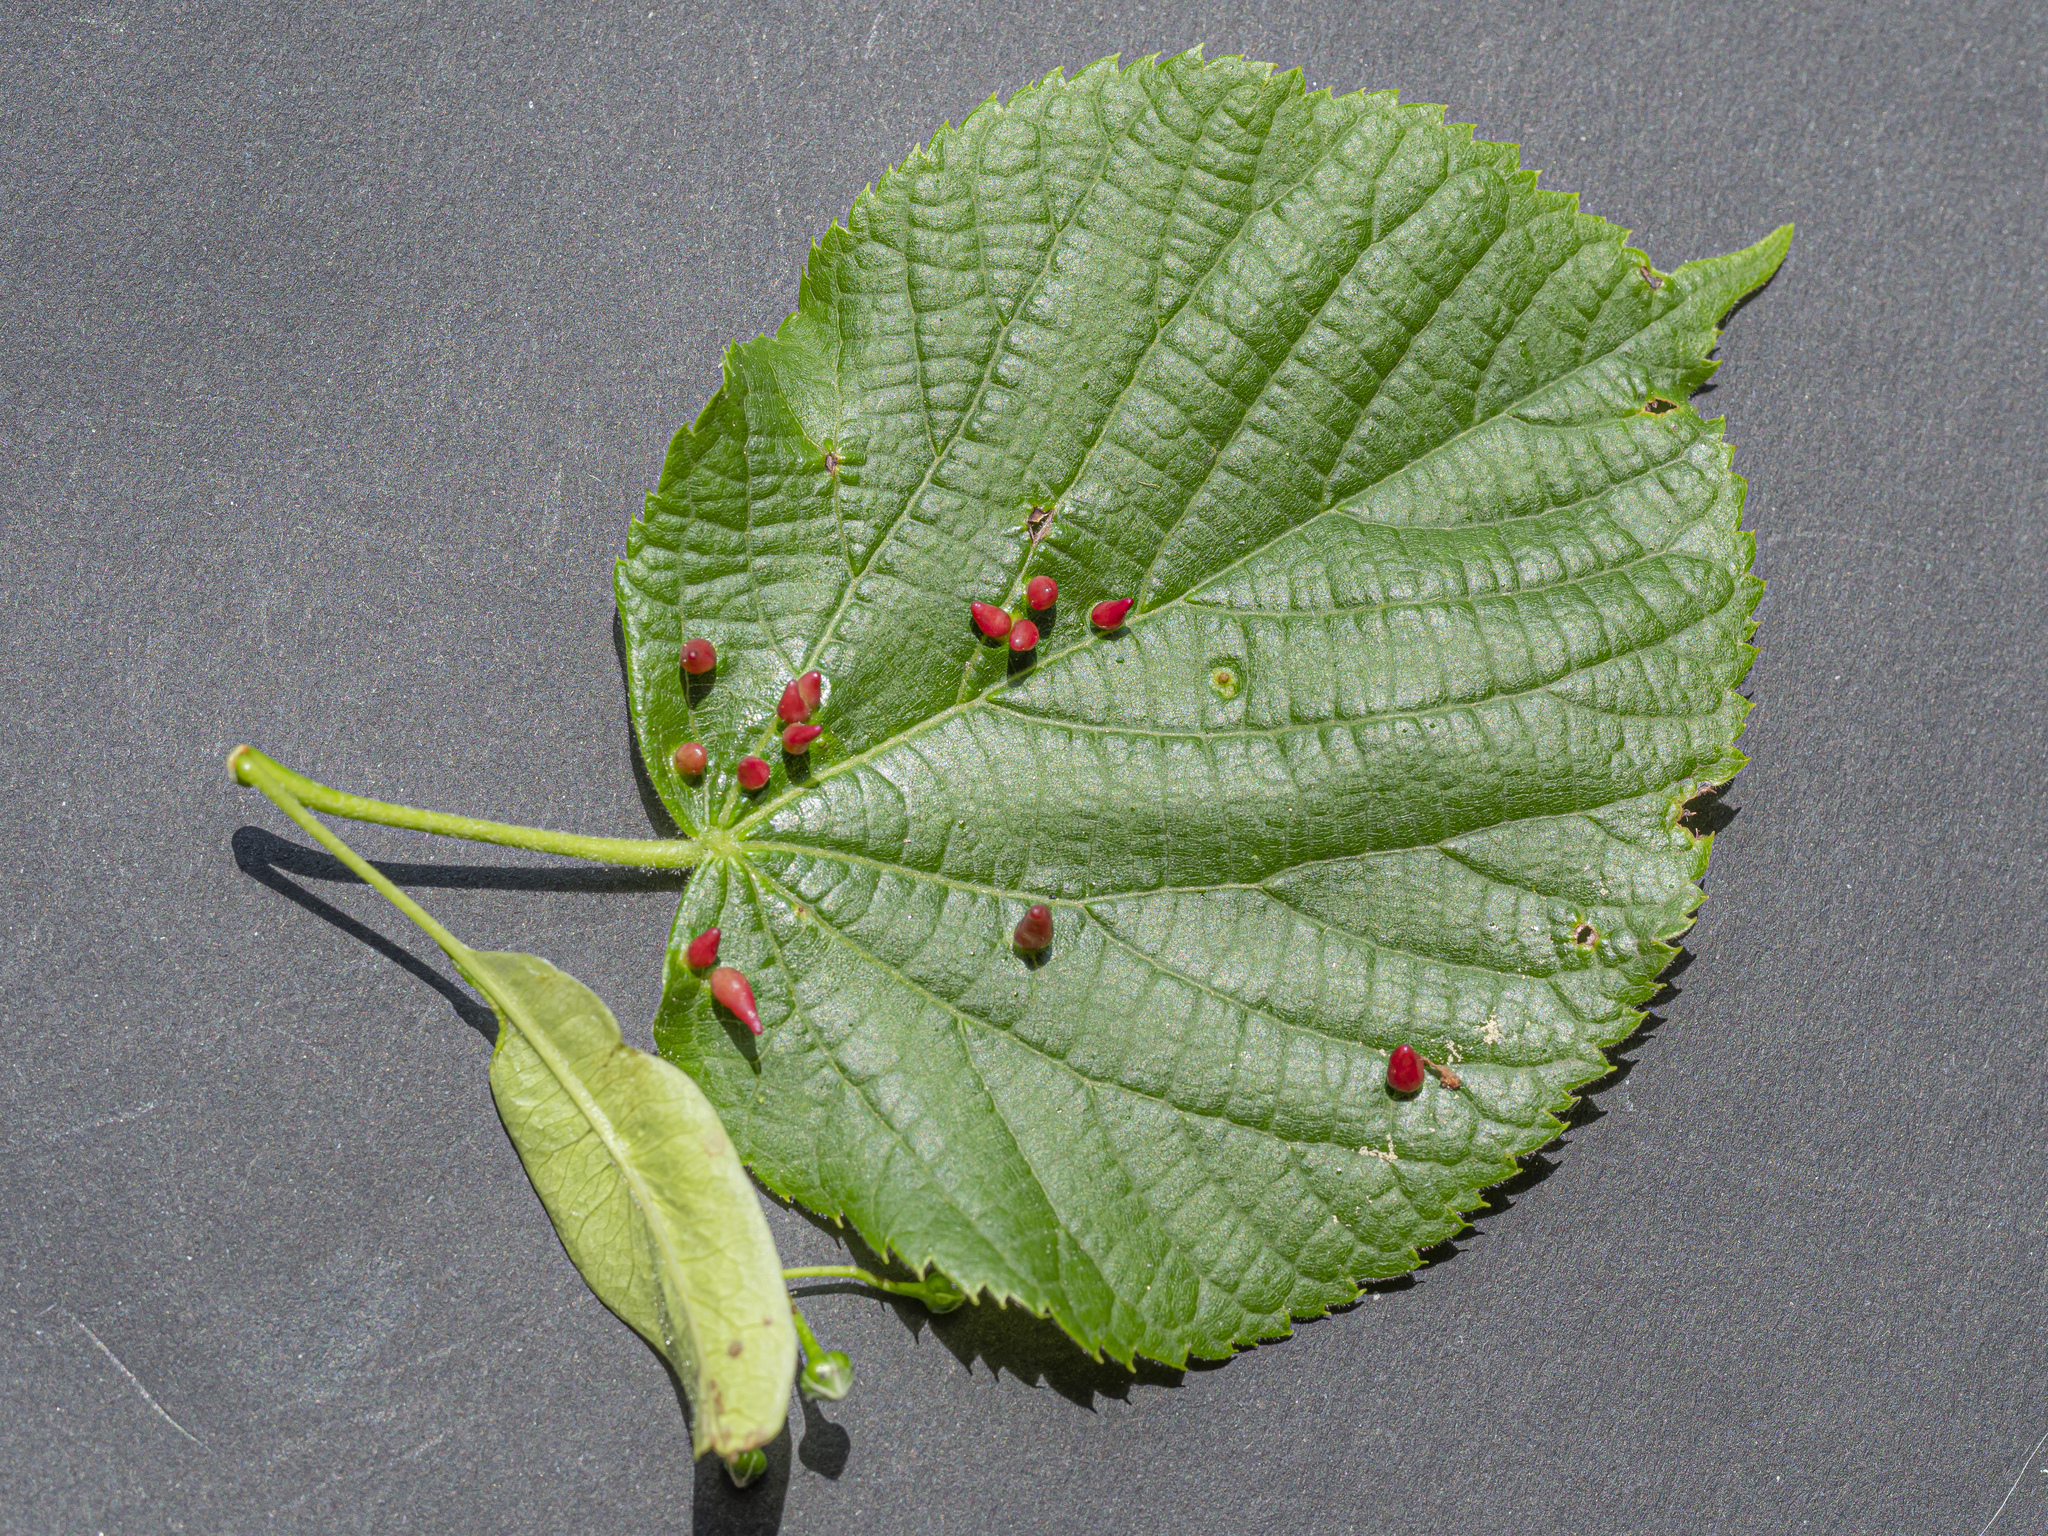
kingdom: Animalia
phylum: Arthropoda
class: Arachnida
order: Trombidiformes
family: Eriophyidae
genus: Eriophyes
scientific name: Eriophyes tiliae
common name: Red nail gall mite
